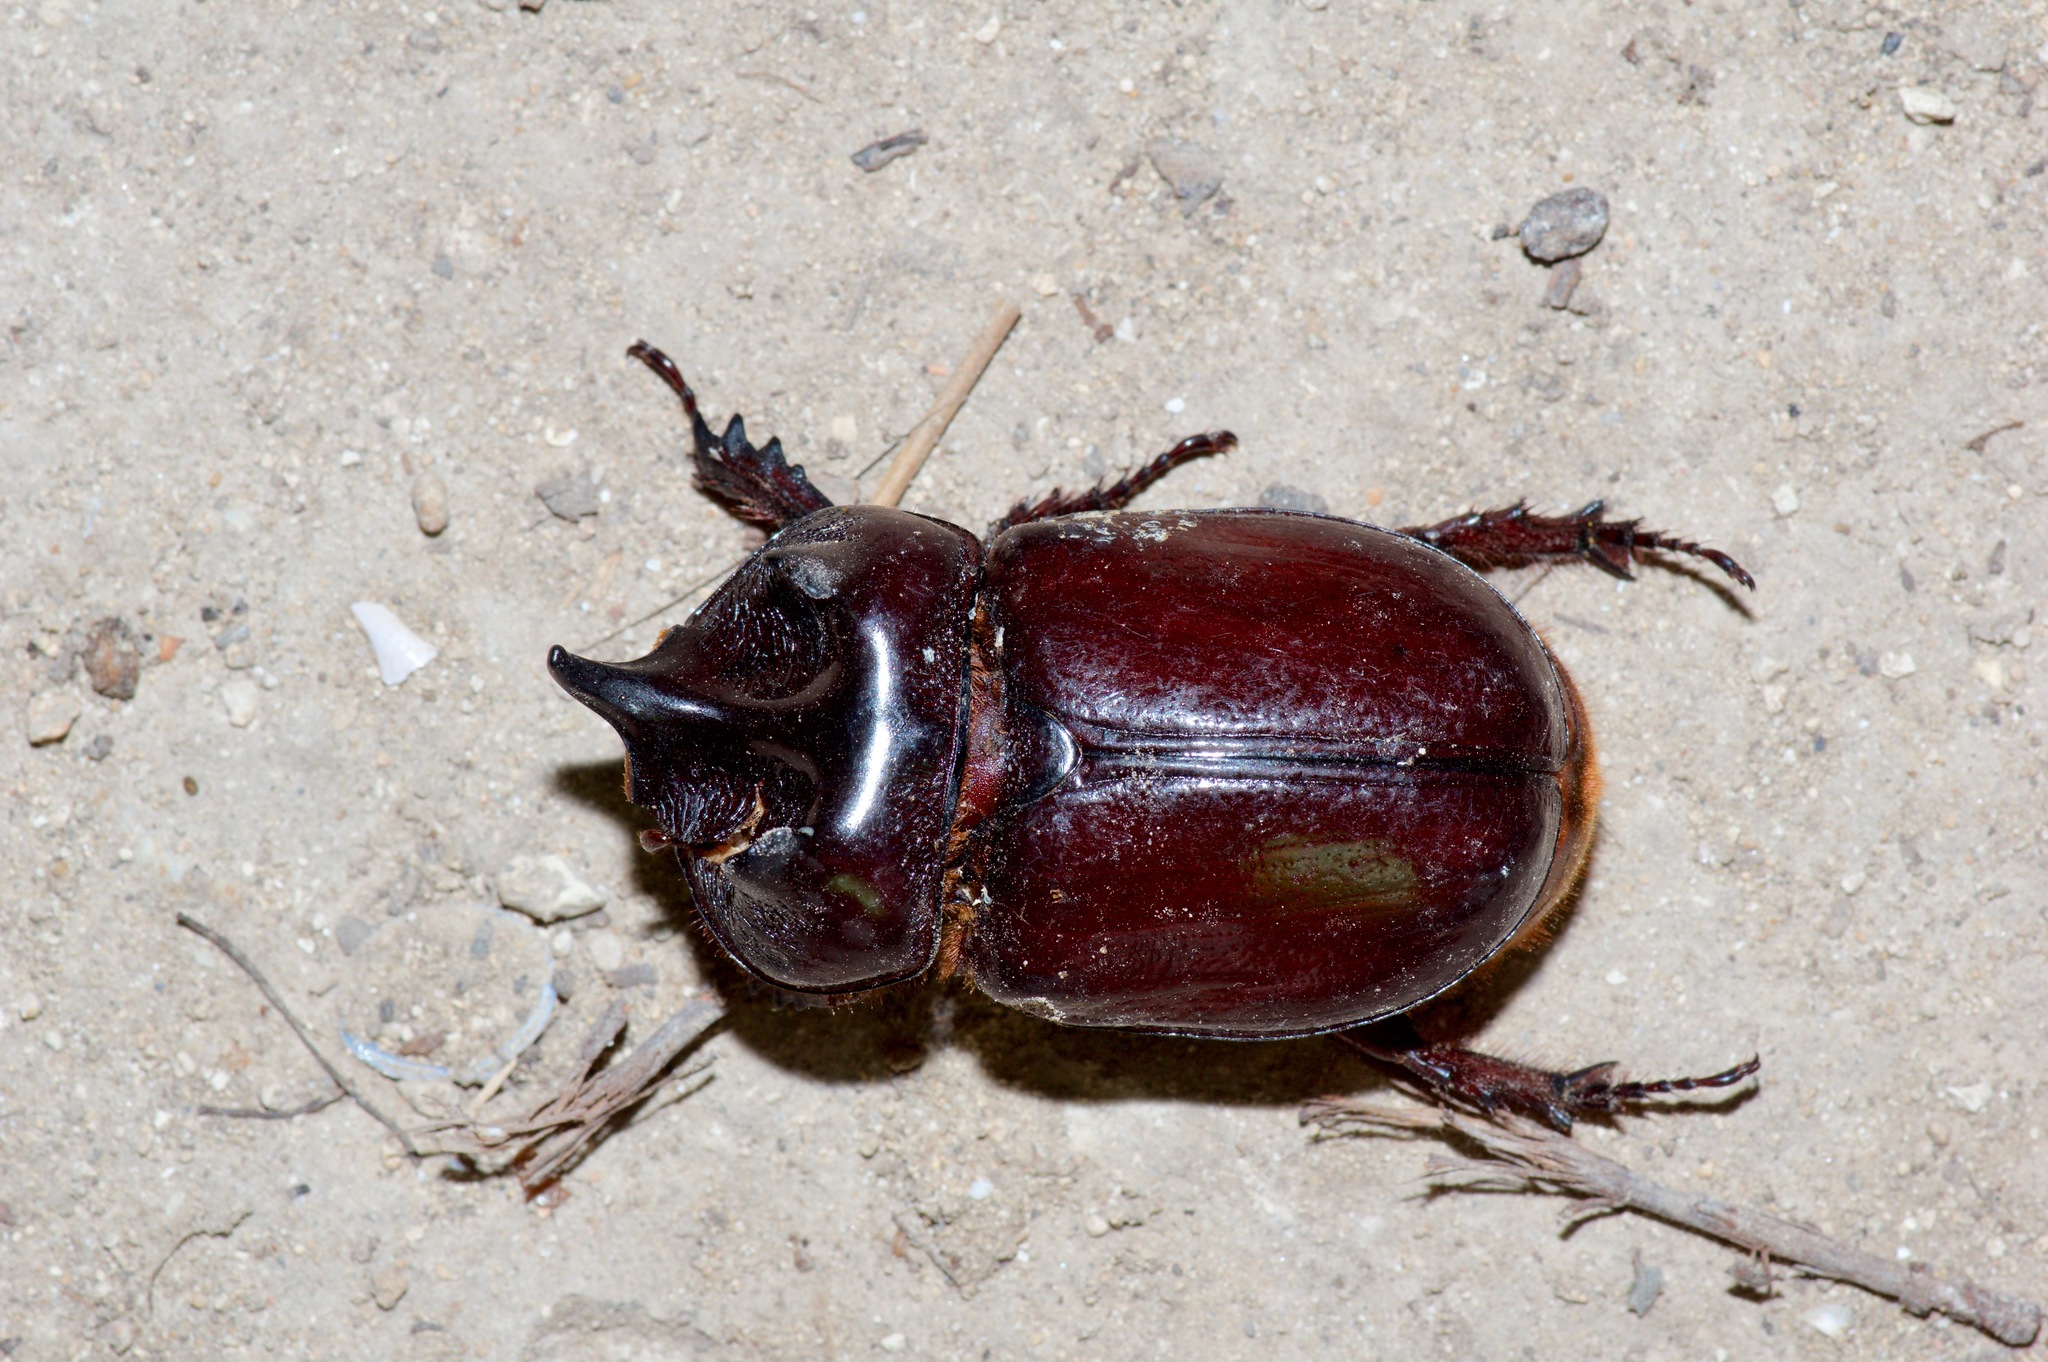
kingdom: Animalia
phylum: Arthropoda
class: Insecta
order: Coleoptera
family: Scarabaeidae
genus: Strategus
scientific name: Strategus aloeus
